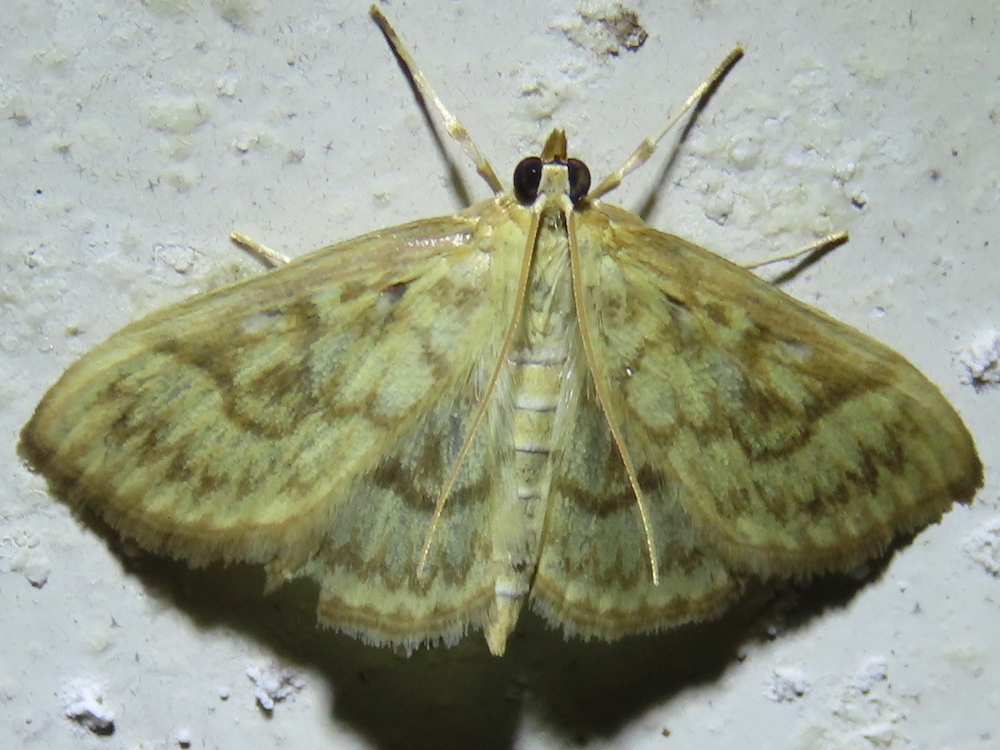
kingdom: Animalia
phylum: Arthropoda
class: Insecta
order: Lepidoptera
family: Crambidae
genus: Crocidophora
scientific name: Crocidophora serratissimalis
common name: Saw-toothed crocidophora moth
